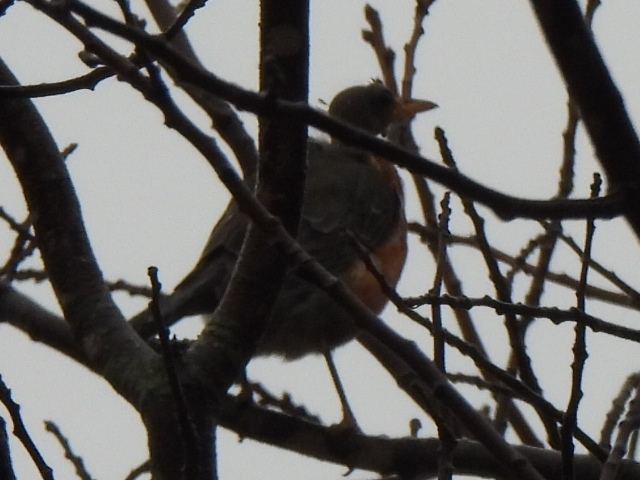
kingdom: Animalia
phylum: Chordata
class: Aves
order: Passeriformes
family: Turdidae
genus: Turdus
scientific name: Turdus migratorius
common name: American robin
